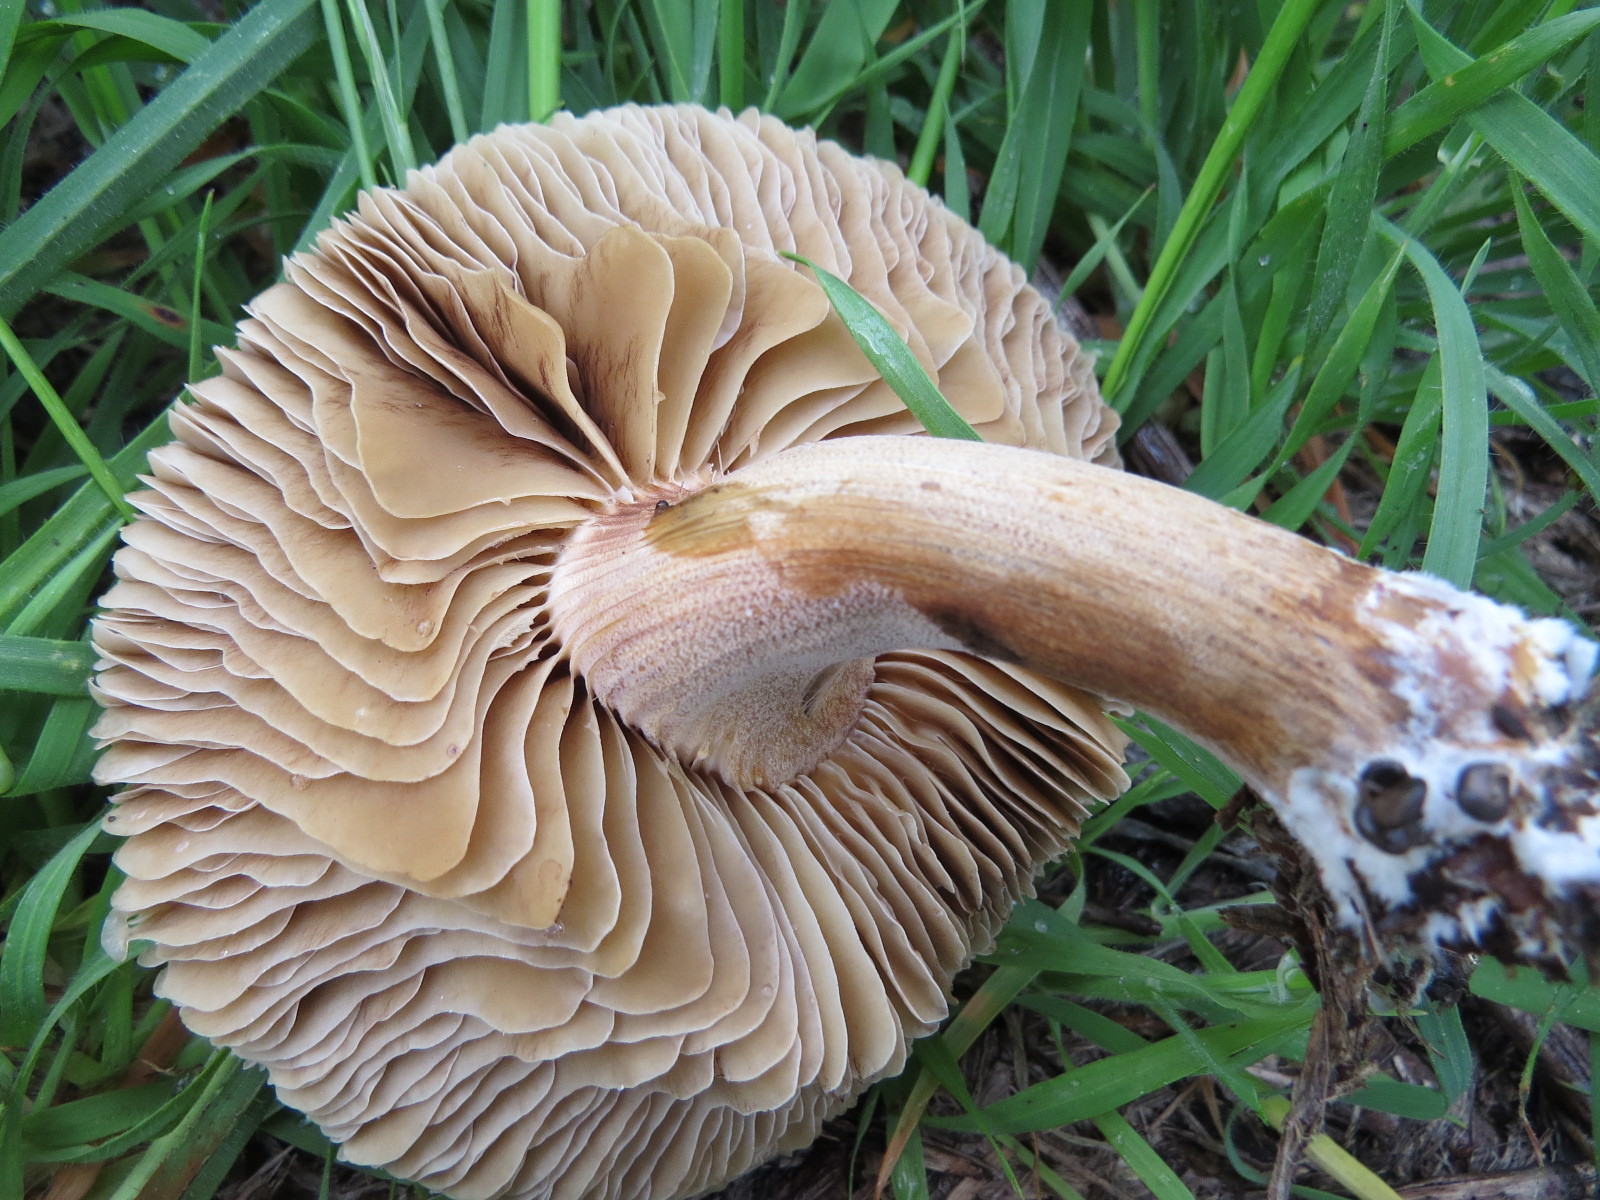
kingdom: Fungi
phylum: Basidiomycota
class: Agaricomycetes
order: Agaricales
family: Strophariaceae
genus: Agrocybe
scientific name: Agrocybe putaminum
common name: Mulch fieldcap
